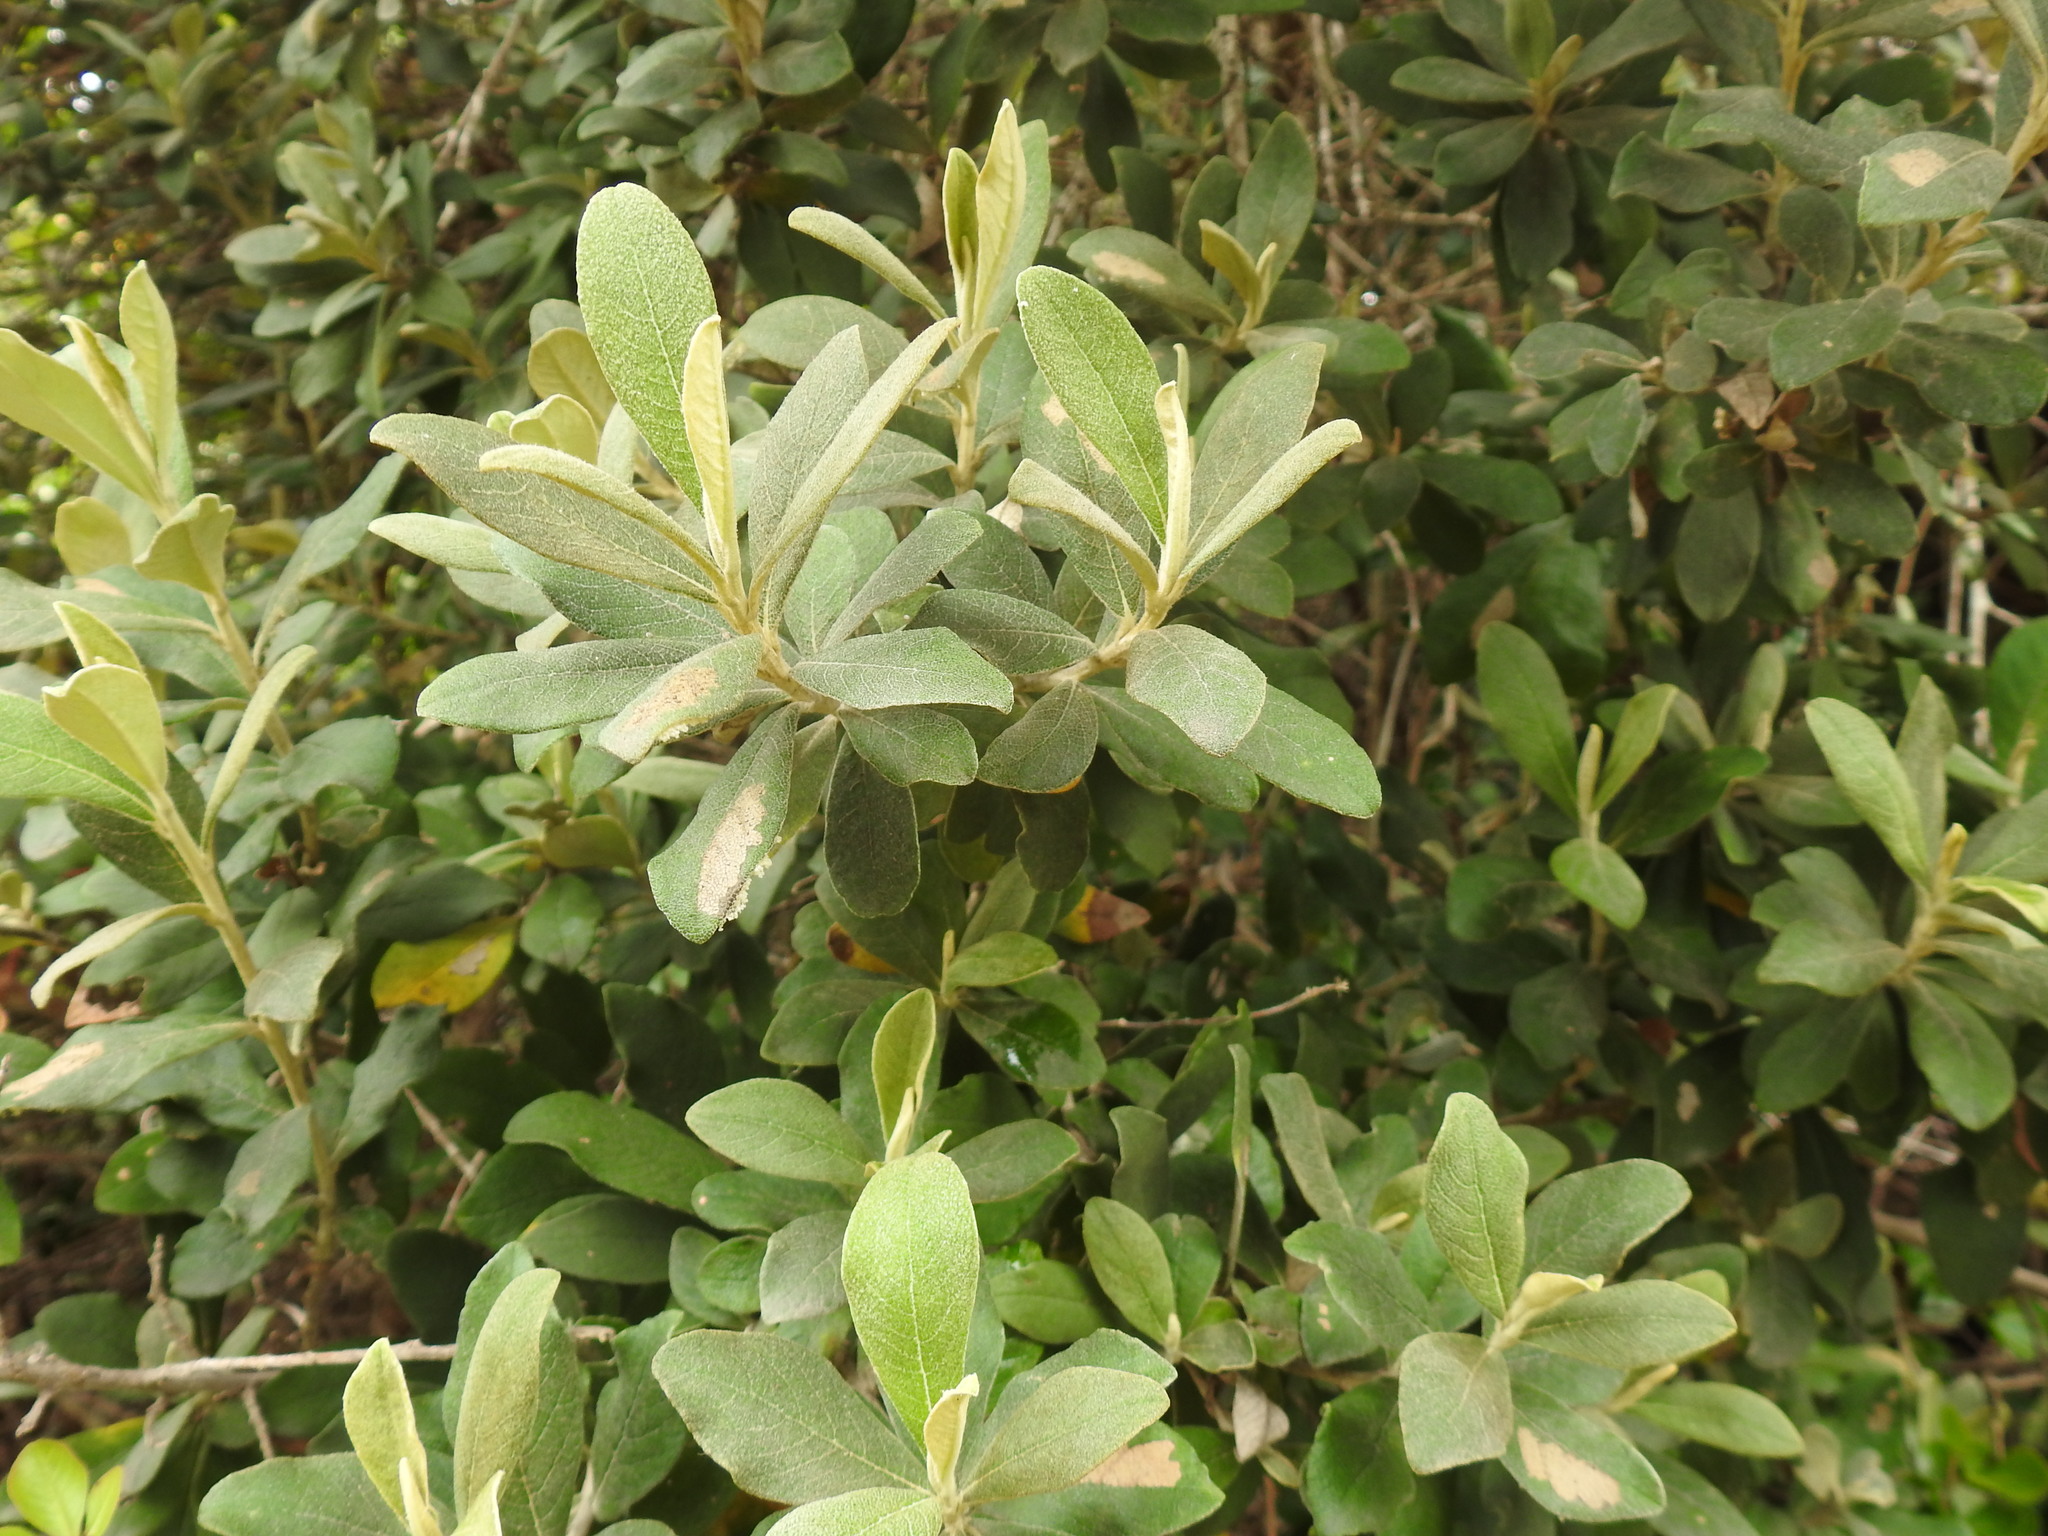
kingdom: Plantae
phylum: Tracheophyta
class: Magnoliopsida
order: Asterales
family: Asteraceae
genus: Tarchonanthus
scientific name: Tarchonanthus littoralis
